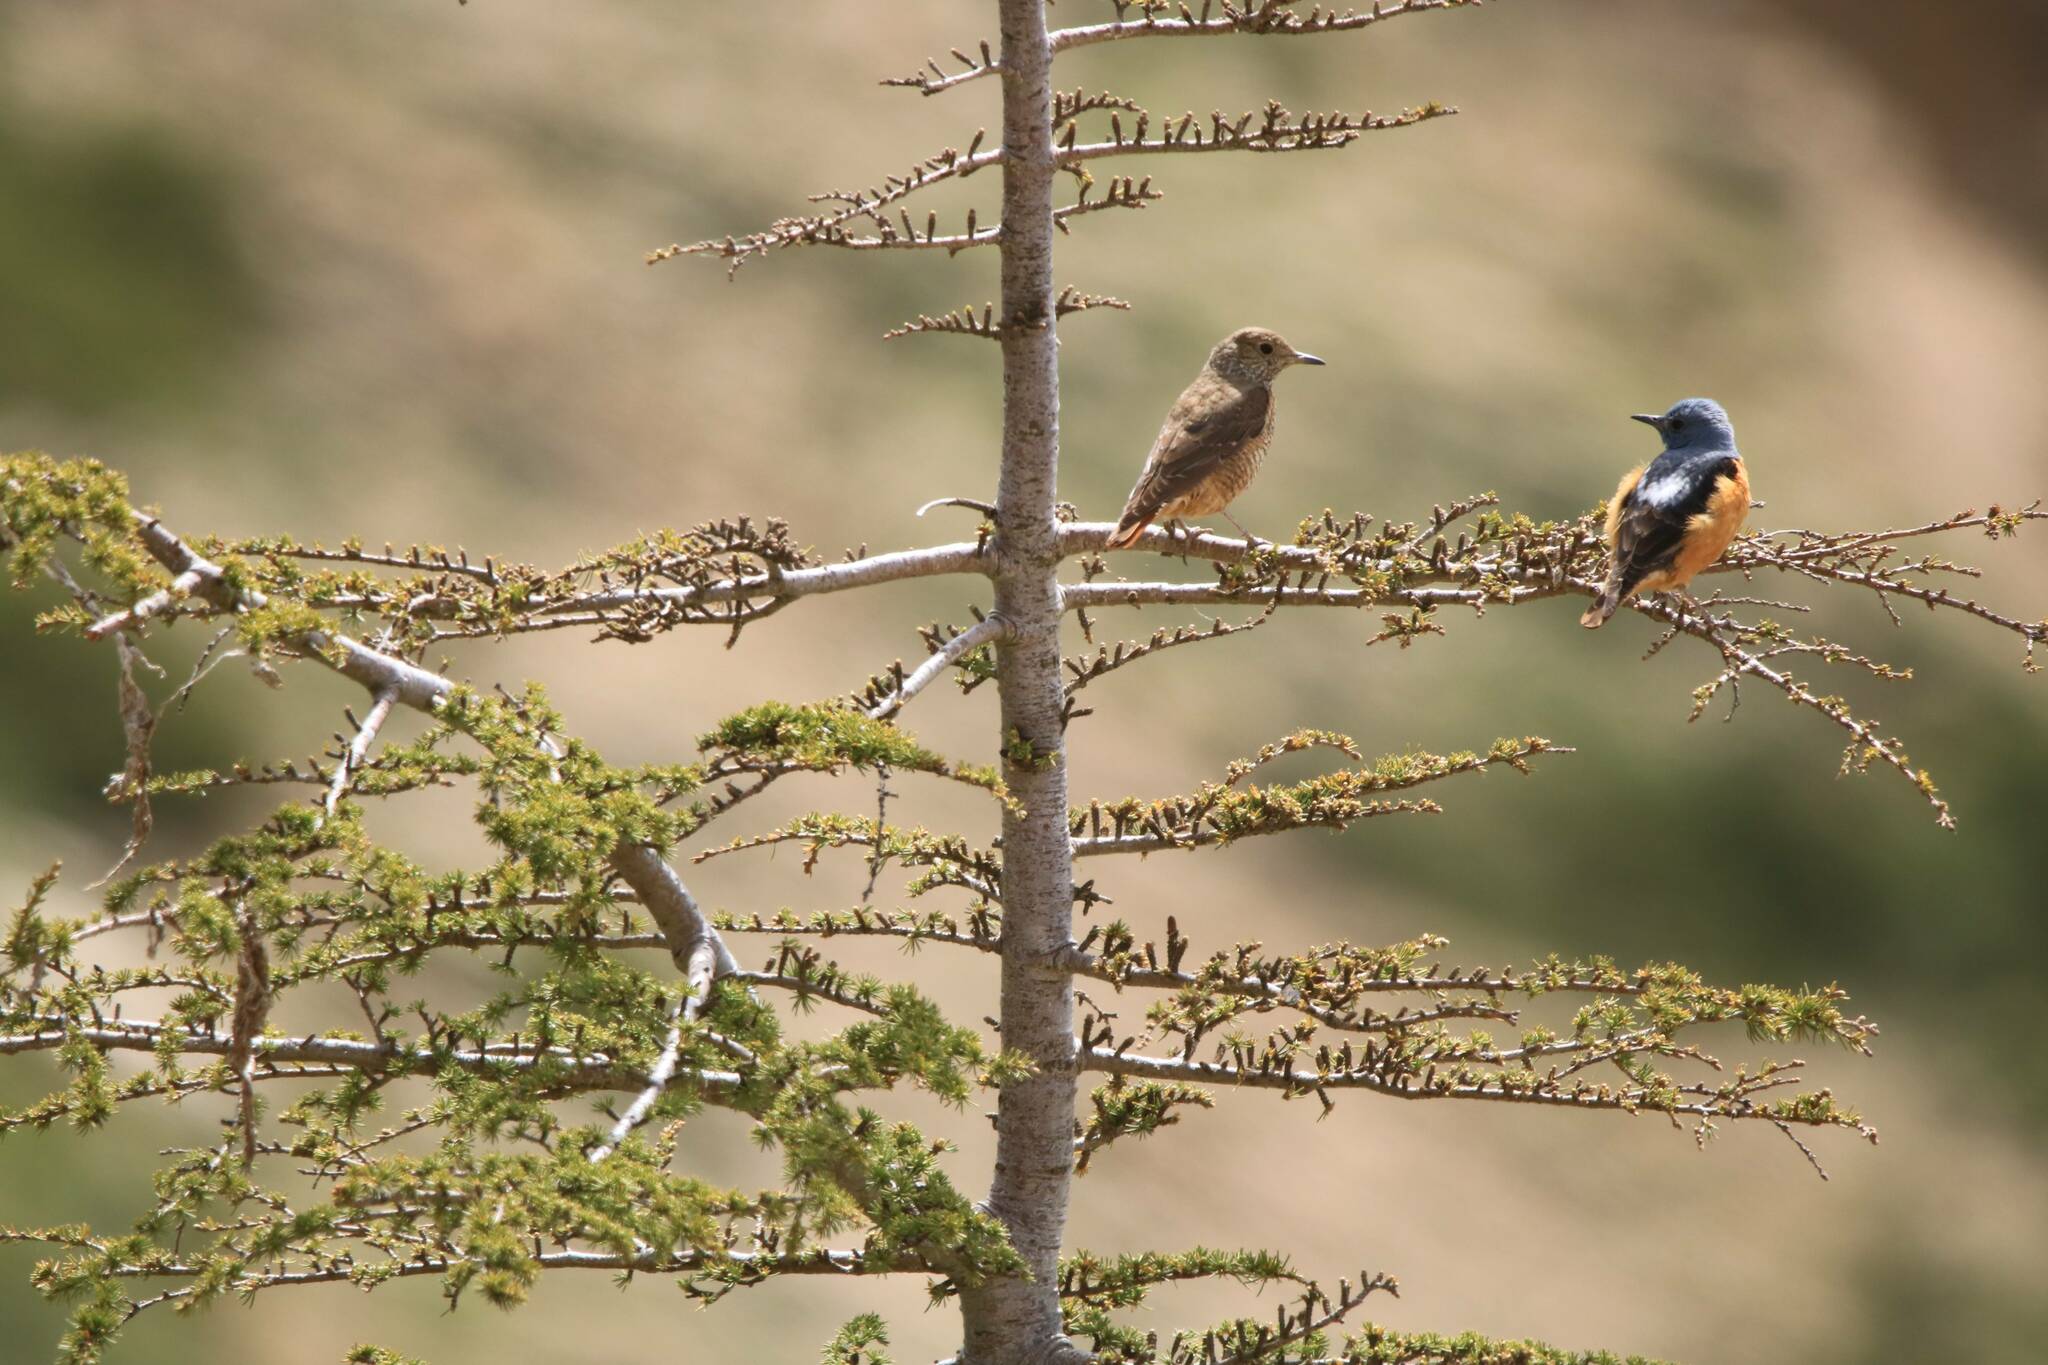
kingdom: Animalia
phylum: Chordata
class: Aves
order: Passeriformes
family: Muscicapidae
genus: Monticola
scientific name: Monticola saxatilis
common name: Rufous-tailed rock thrush
